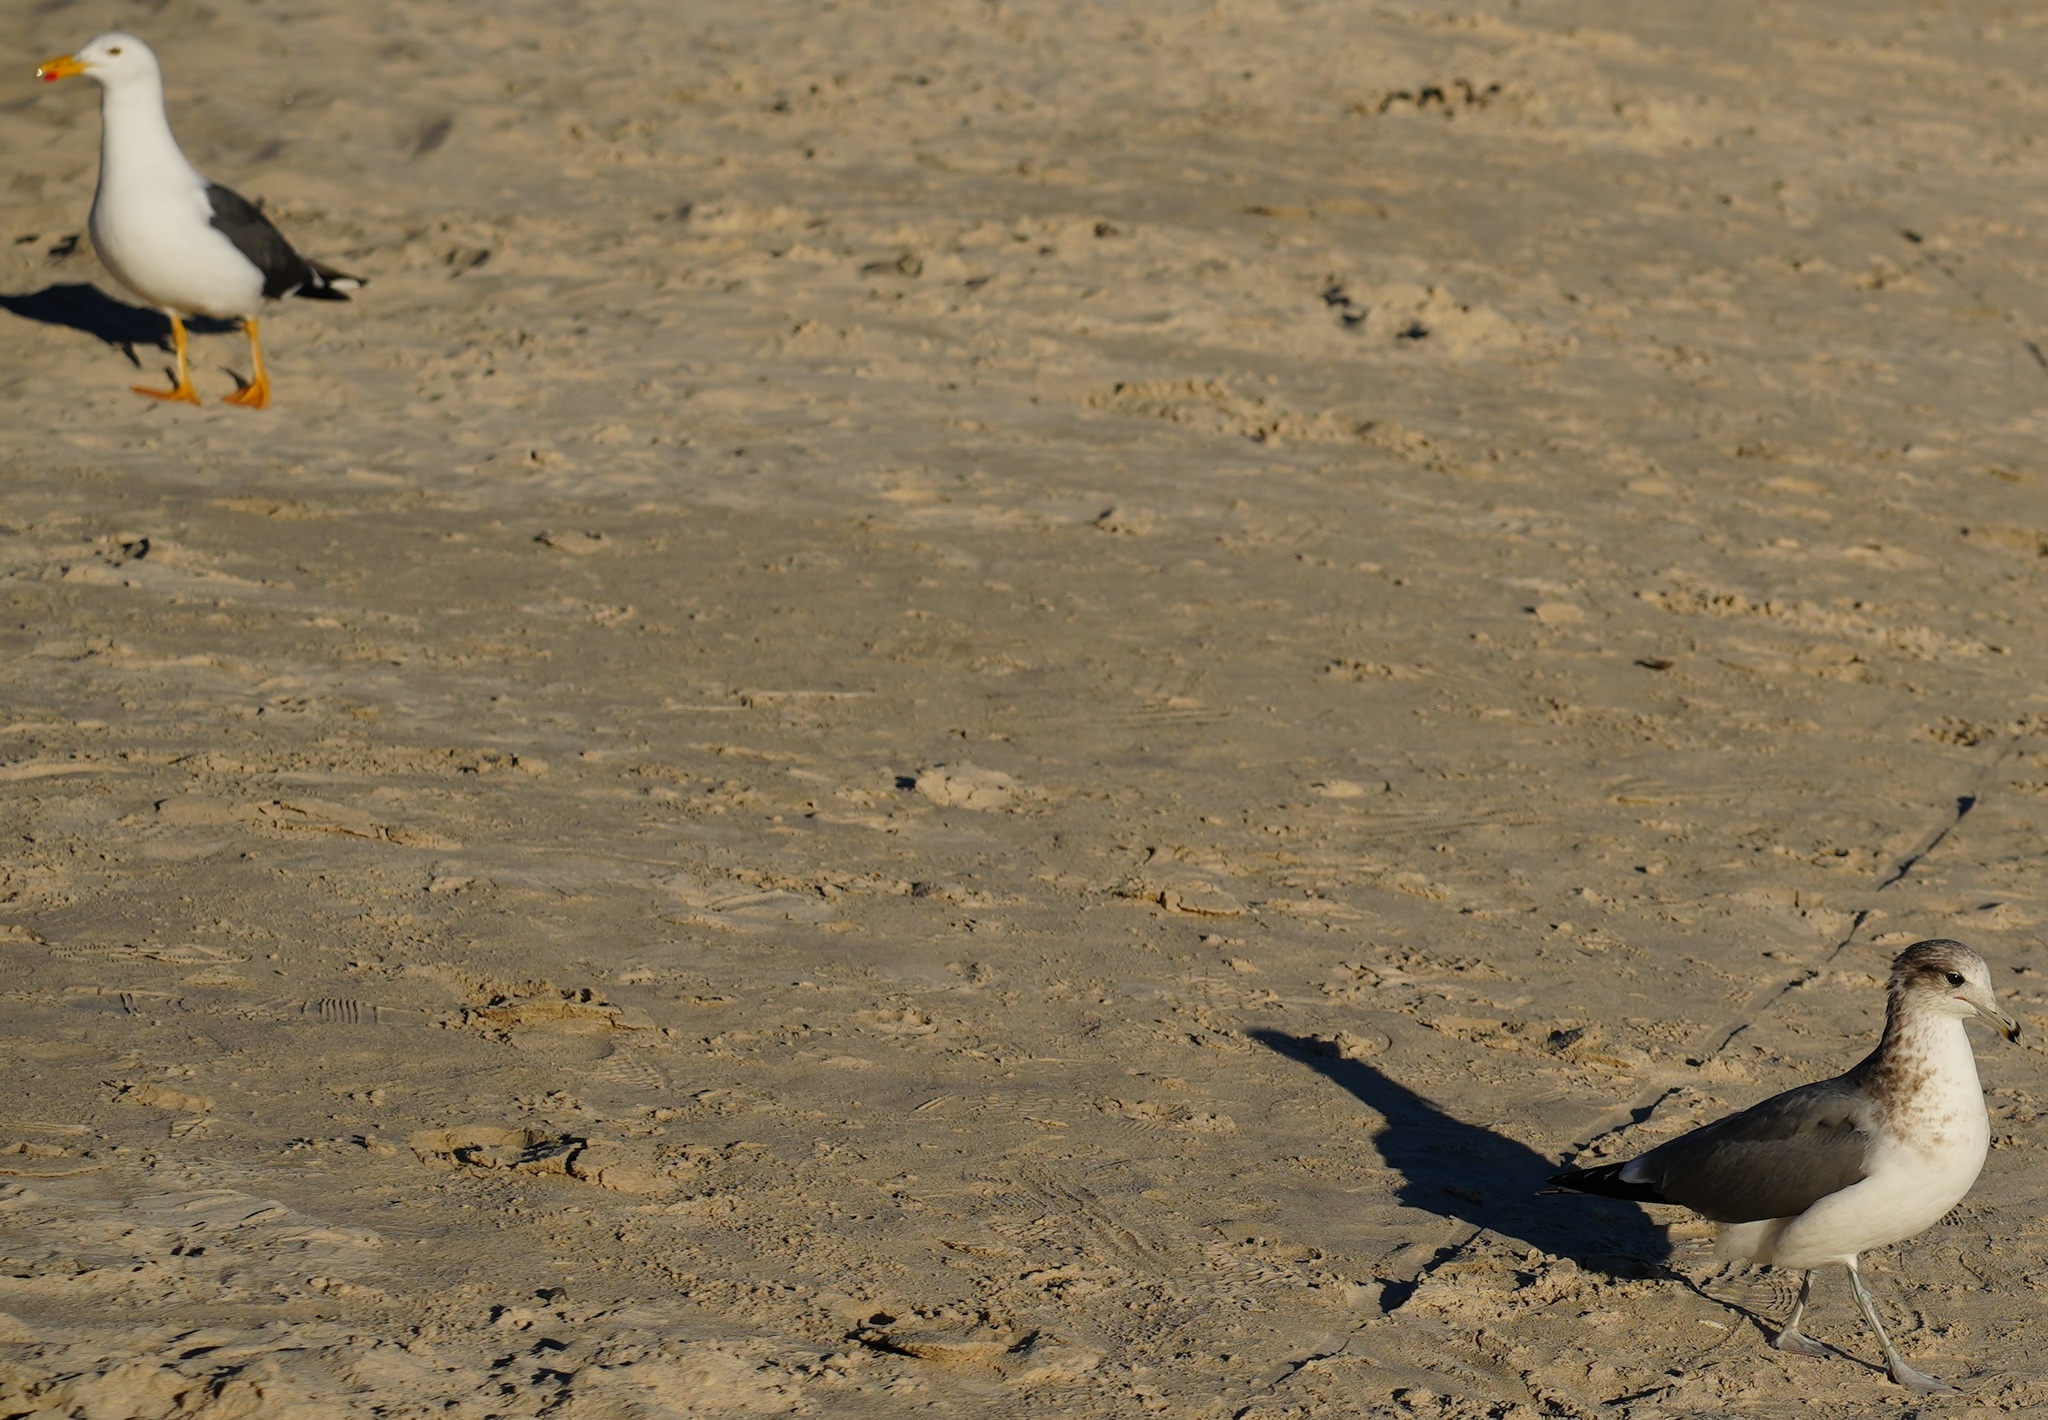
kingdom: Animalia
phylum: Chordata
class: Aves
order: Charadriiformes
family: Laridae
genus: Larus
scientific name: Larus californicus
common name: California gull
